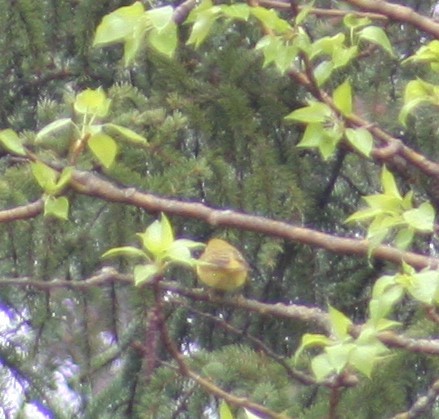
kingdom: Animalia
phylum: Chordata
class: Aves
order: Passeriformes
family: Parulidae
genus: Setophaga
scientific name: Setophaga petechia
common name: Yellow warbler
